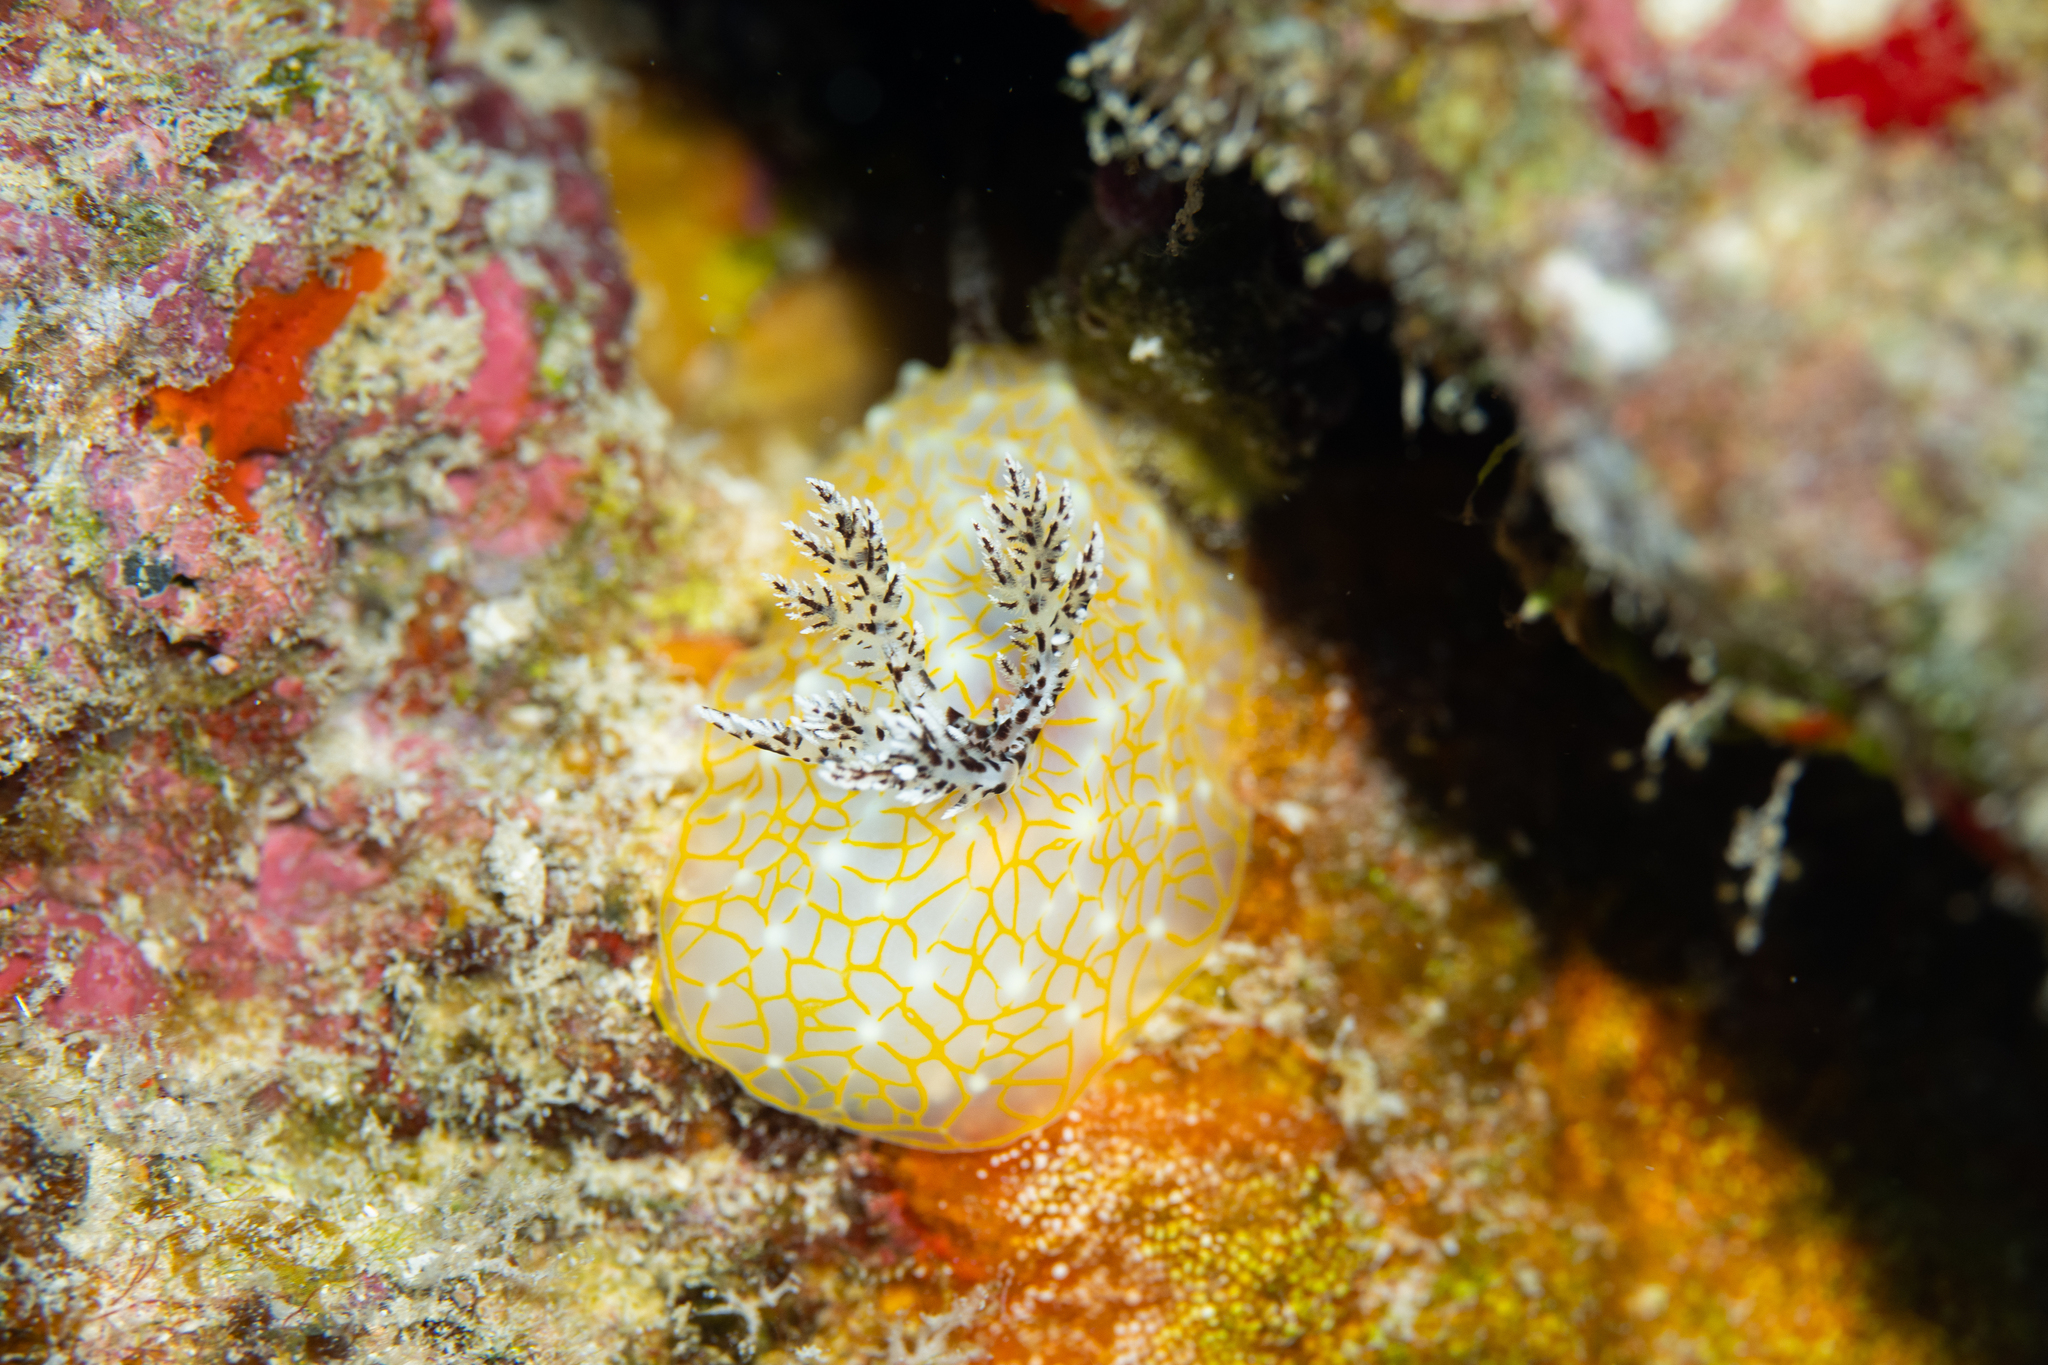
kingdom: Animalia
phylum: Mollusca
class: Gastropoda
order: Nudibranchia
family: Discodorididae
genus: Halgerda
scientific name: Halgerda terramtuentis
